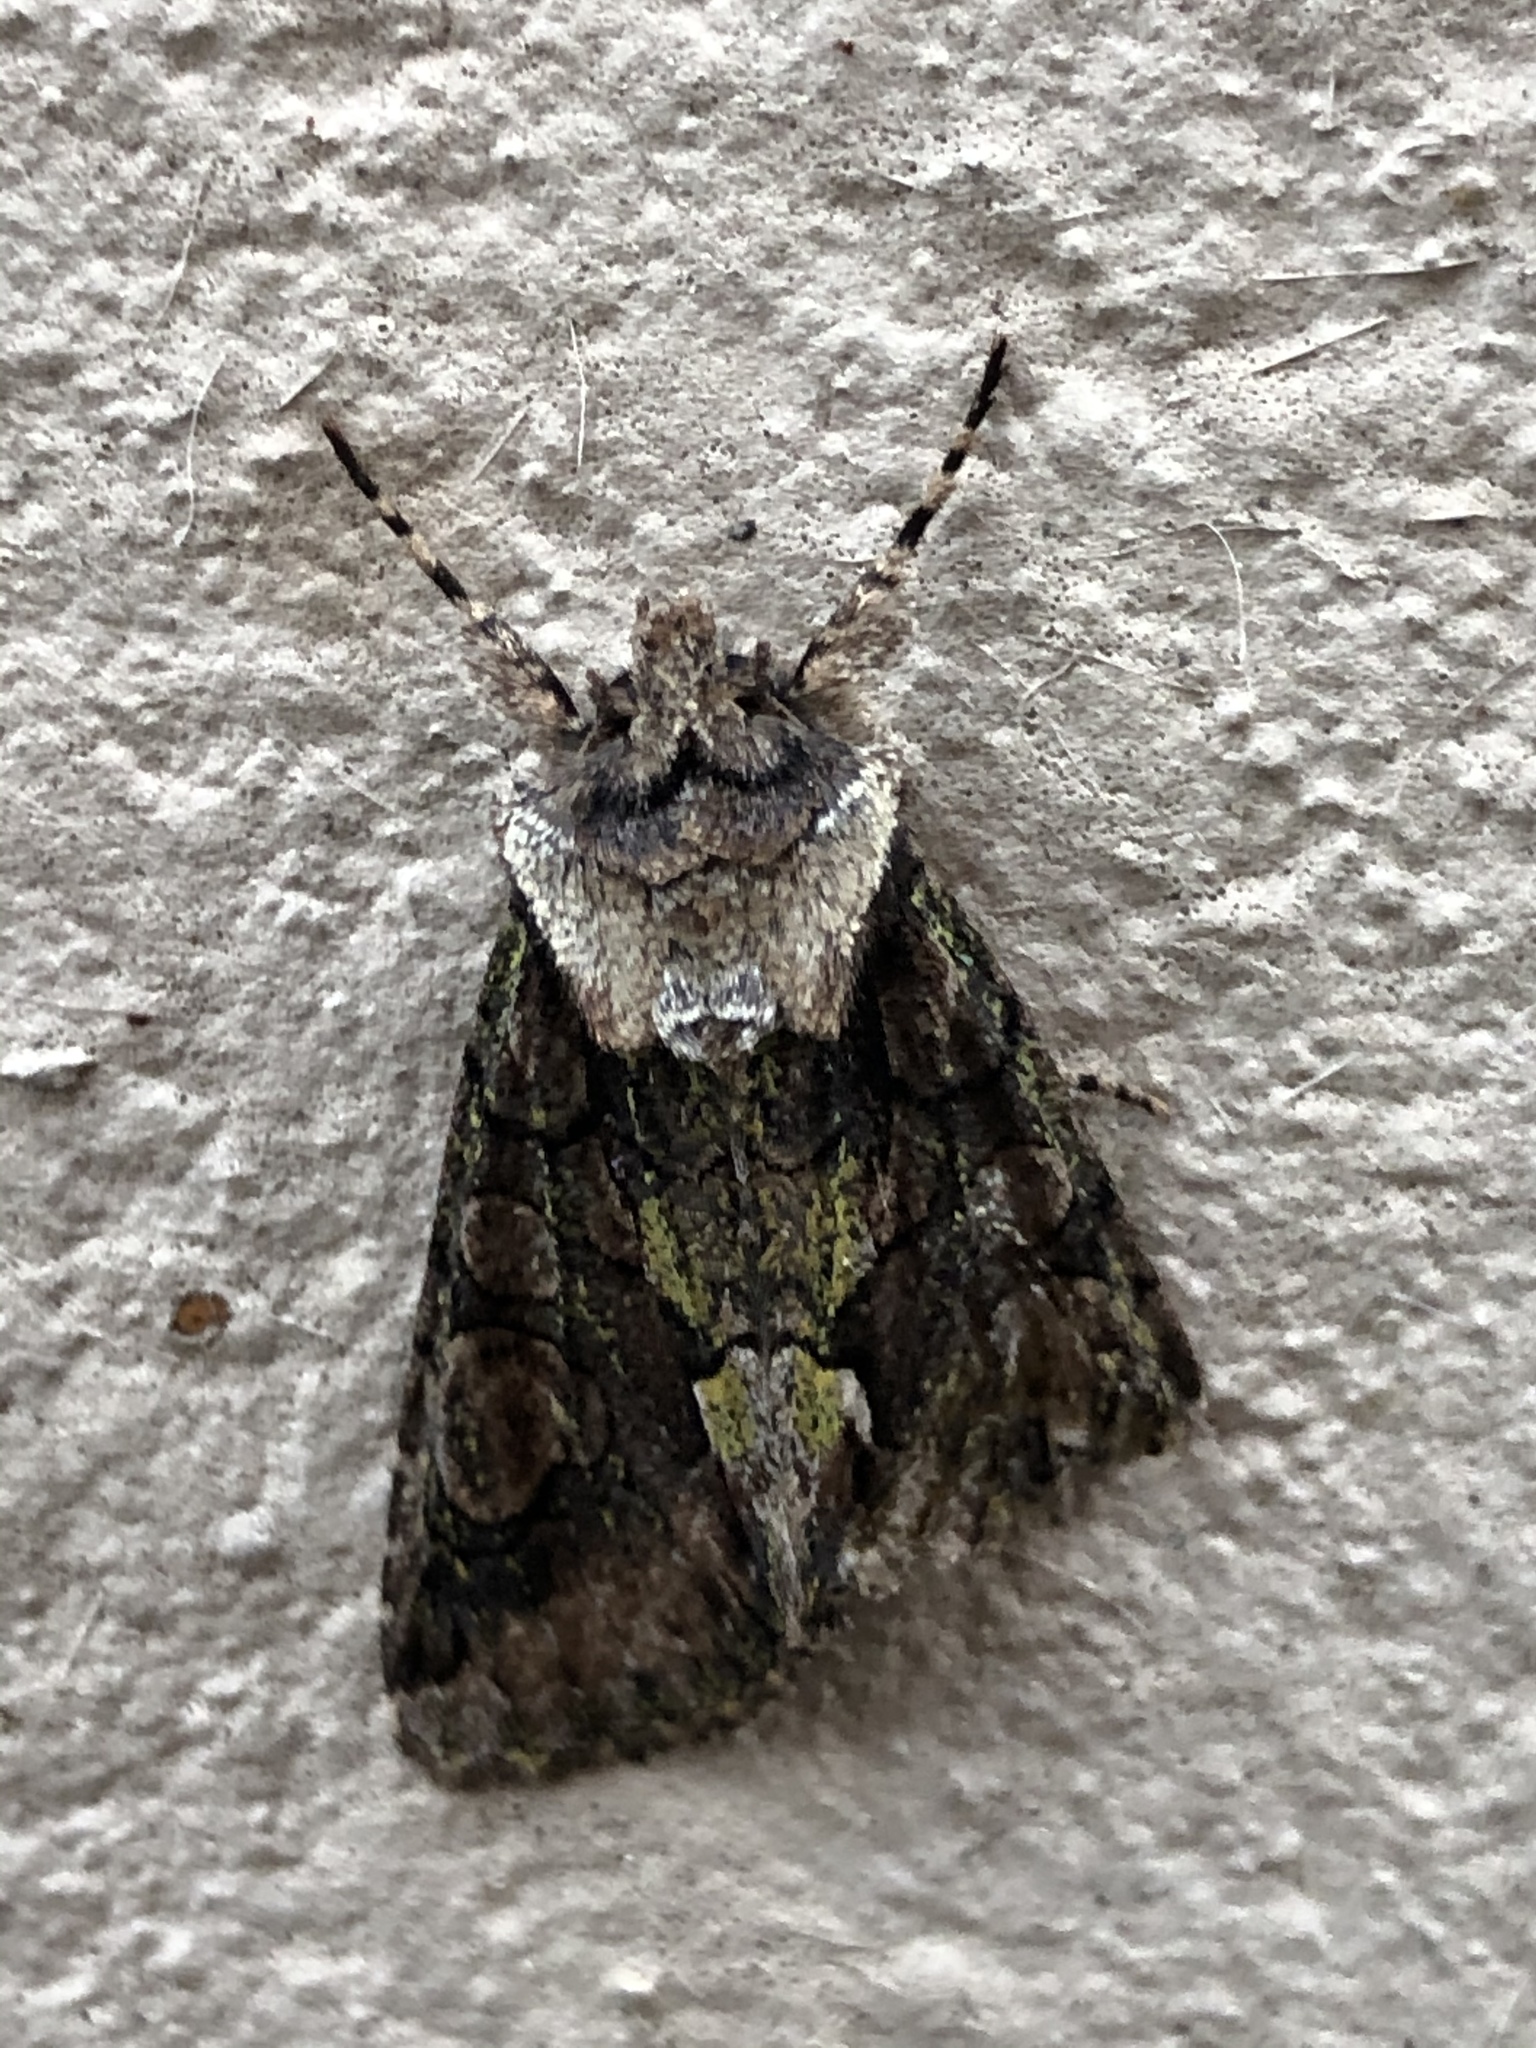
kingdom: Animalia
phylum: Arthropoda
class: Insecta
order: Lepidoptera
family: Noctuidae
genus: Allophyes
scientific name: Allophyes oxyacanthae
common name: Green-brindled crescent
